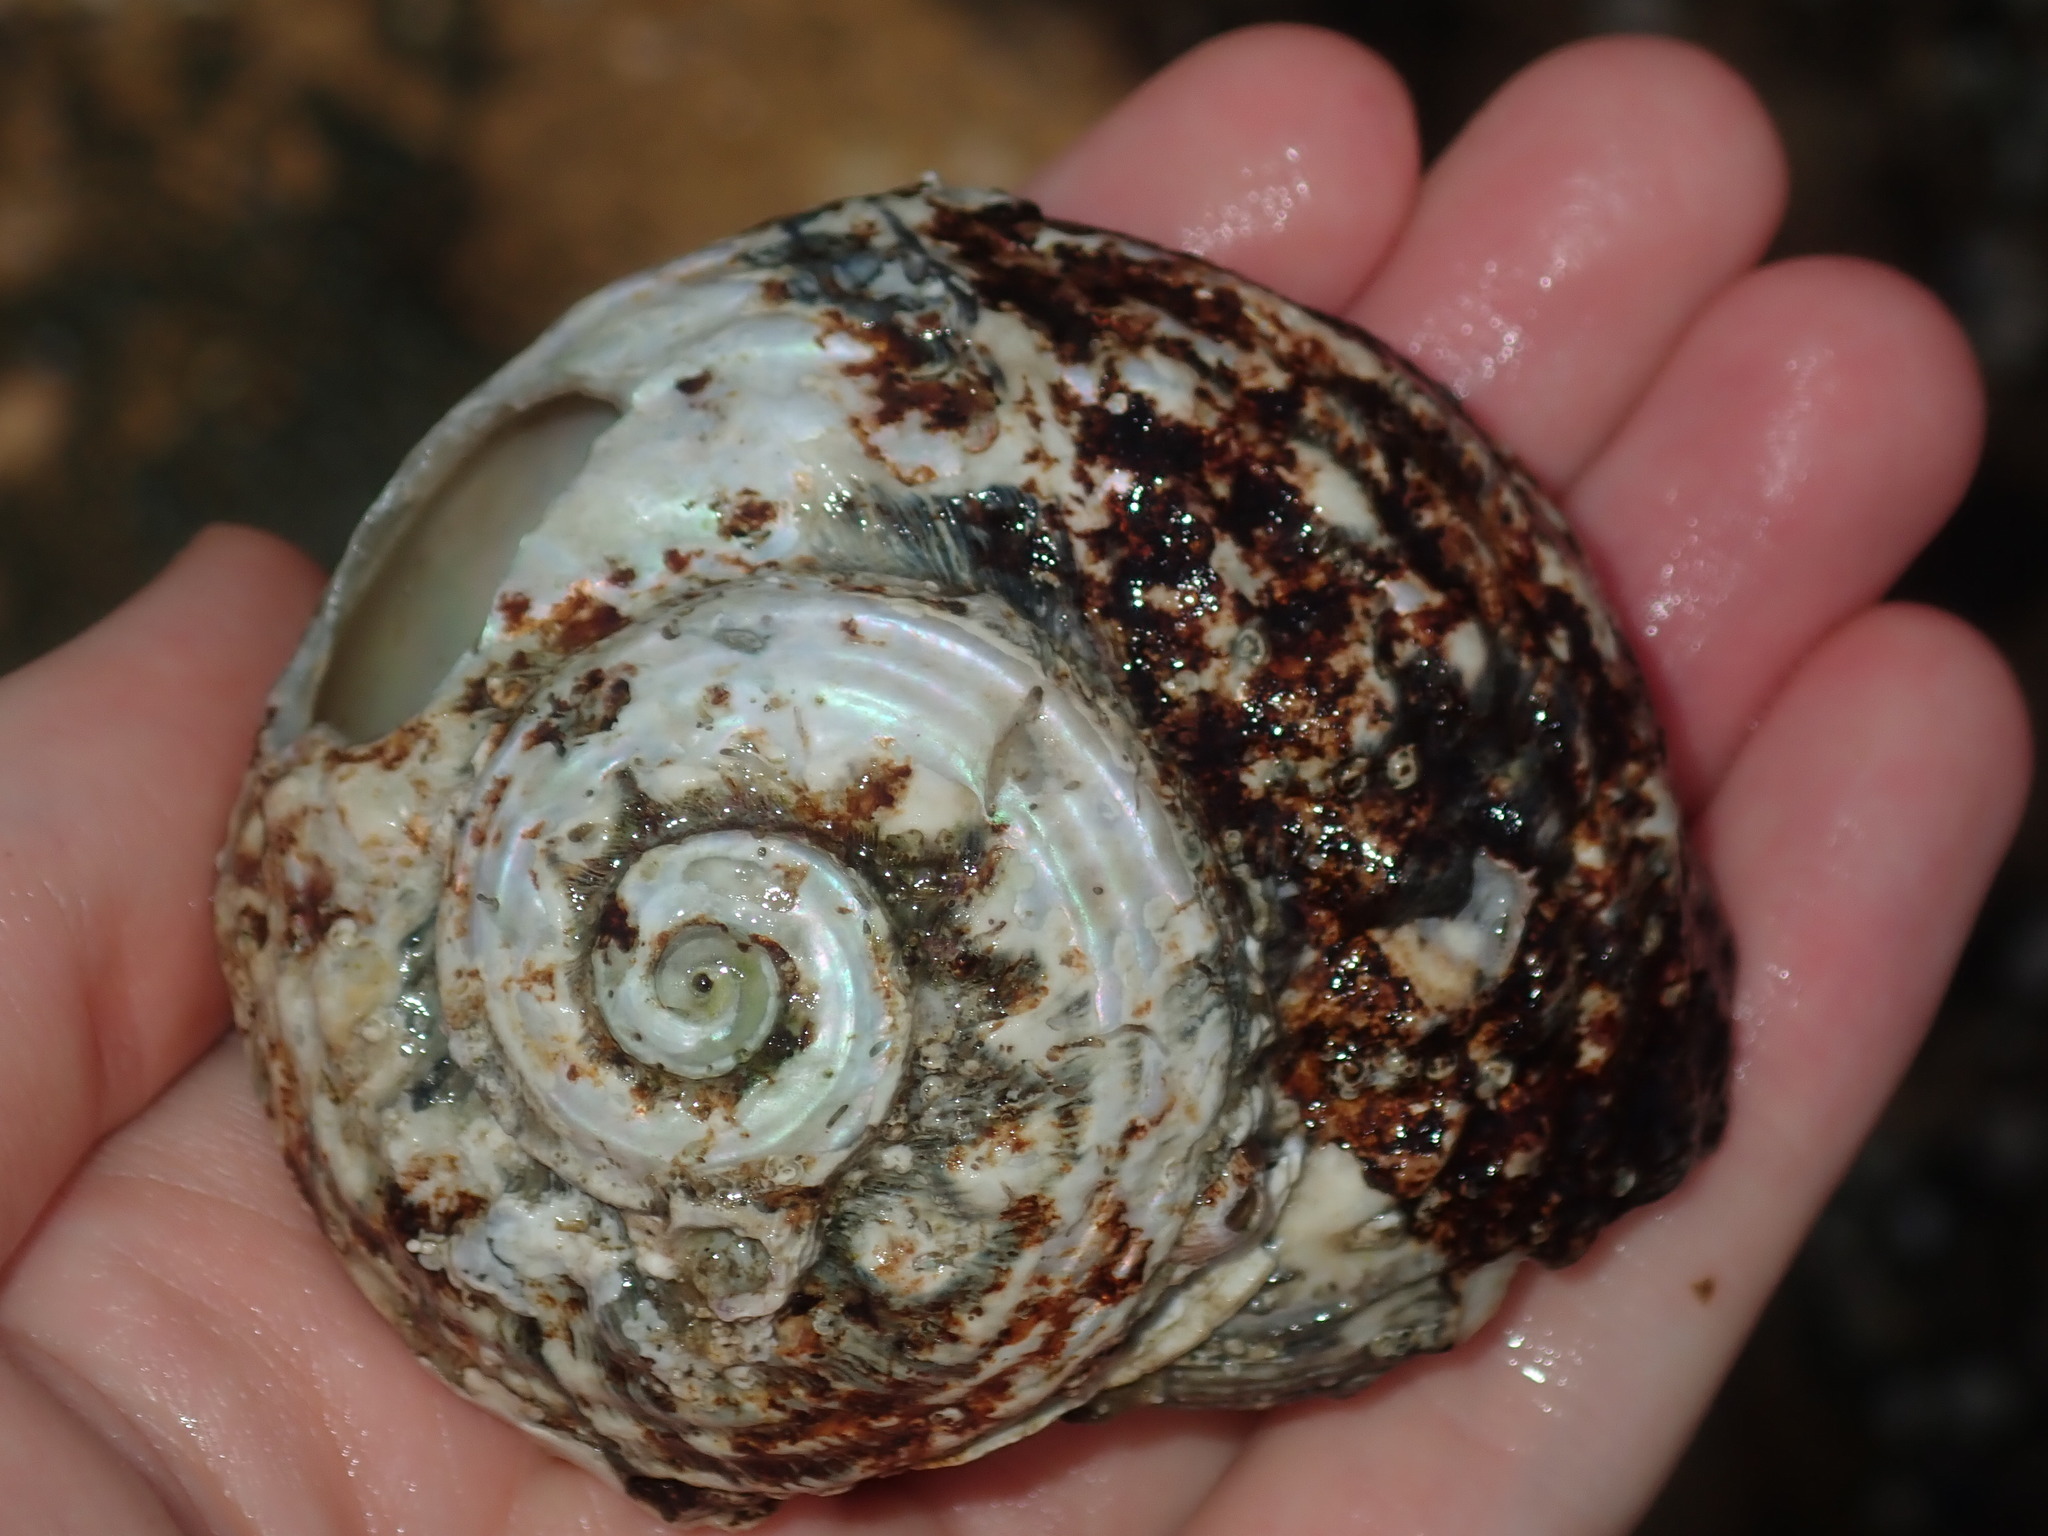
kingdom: Animalia
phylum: Mollusca
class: Gastropoda
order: Trochida
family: Turbinidae
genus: Lunella
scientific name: Lunella torquata
